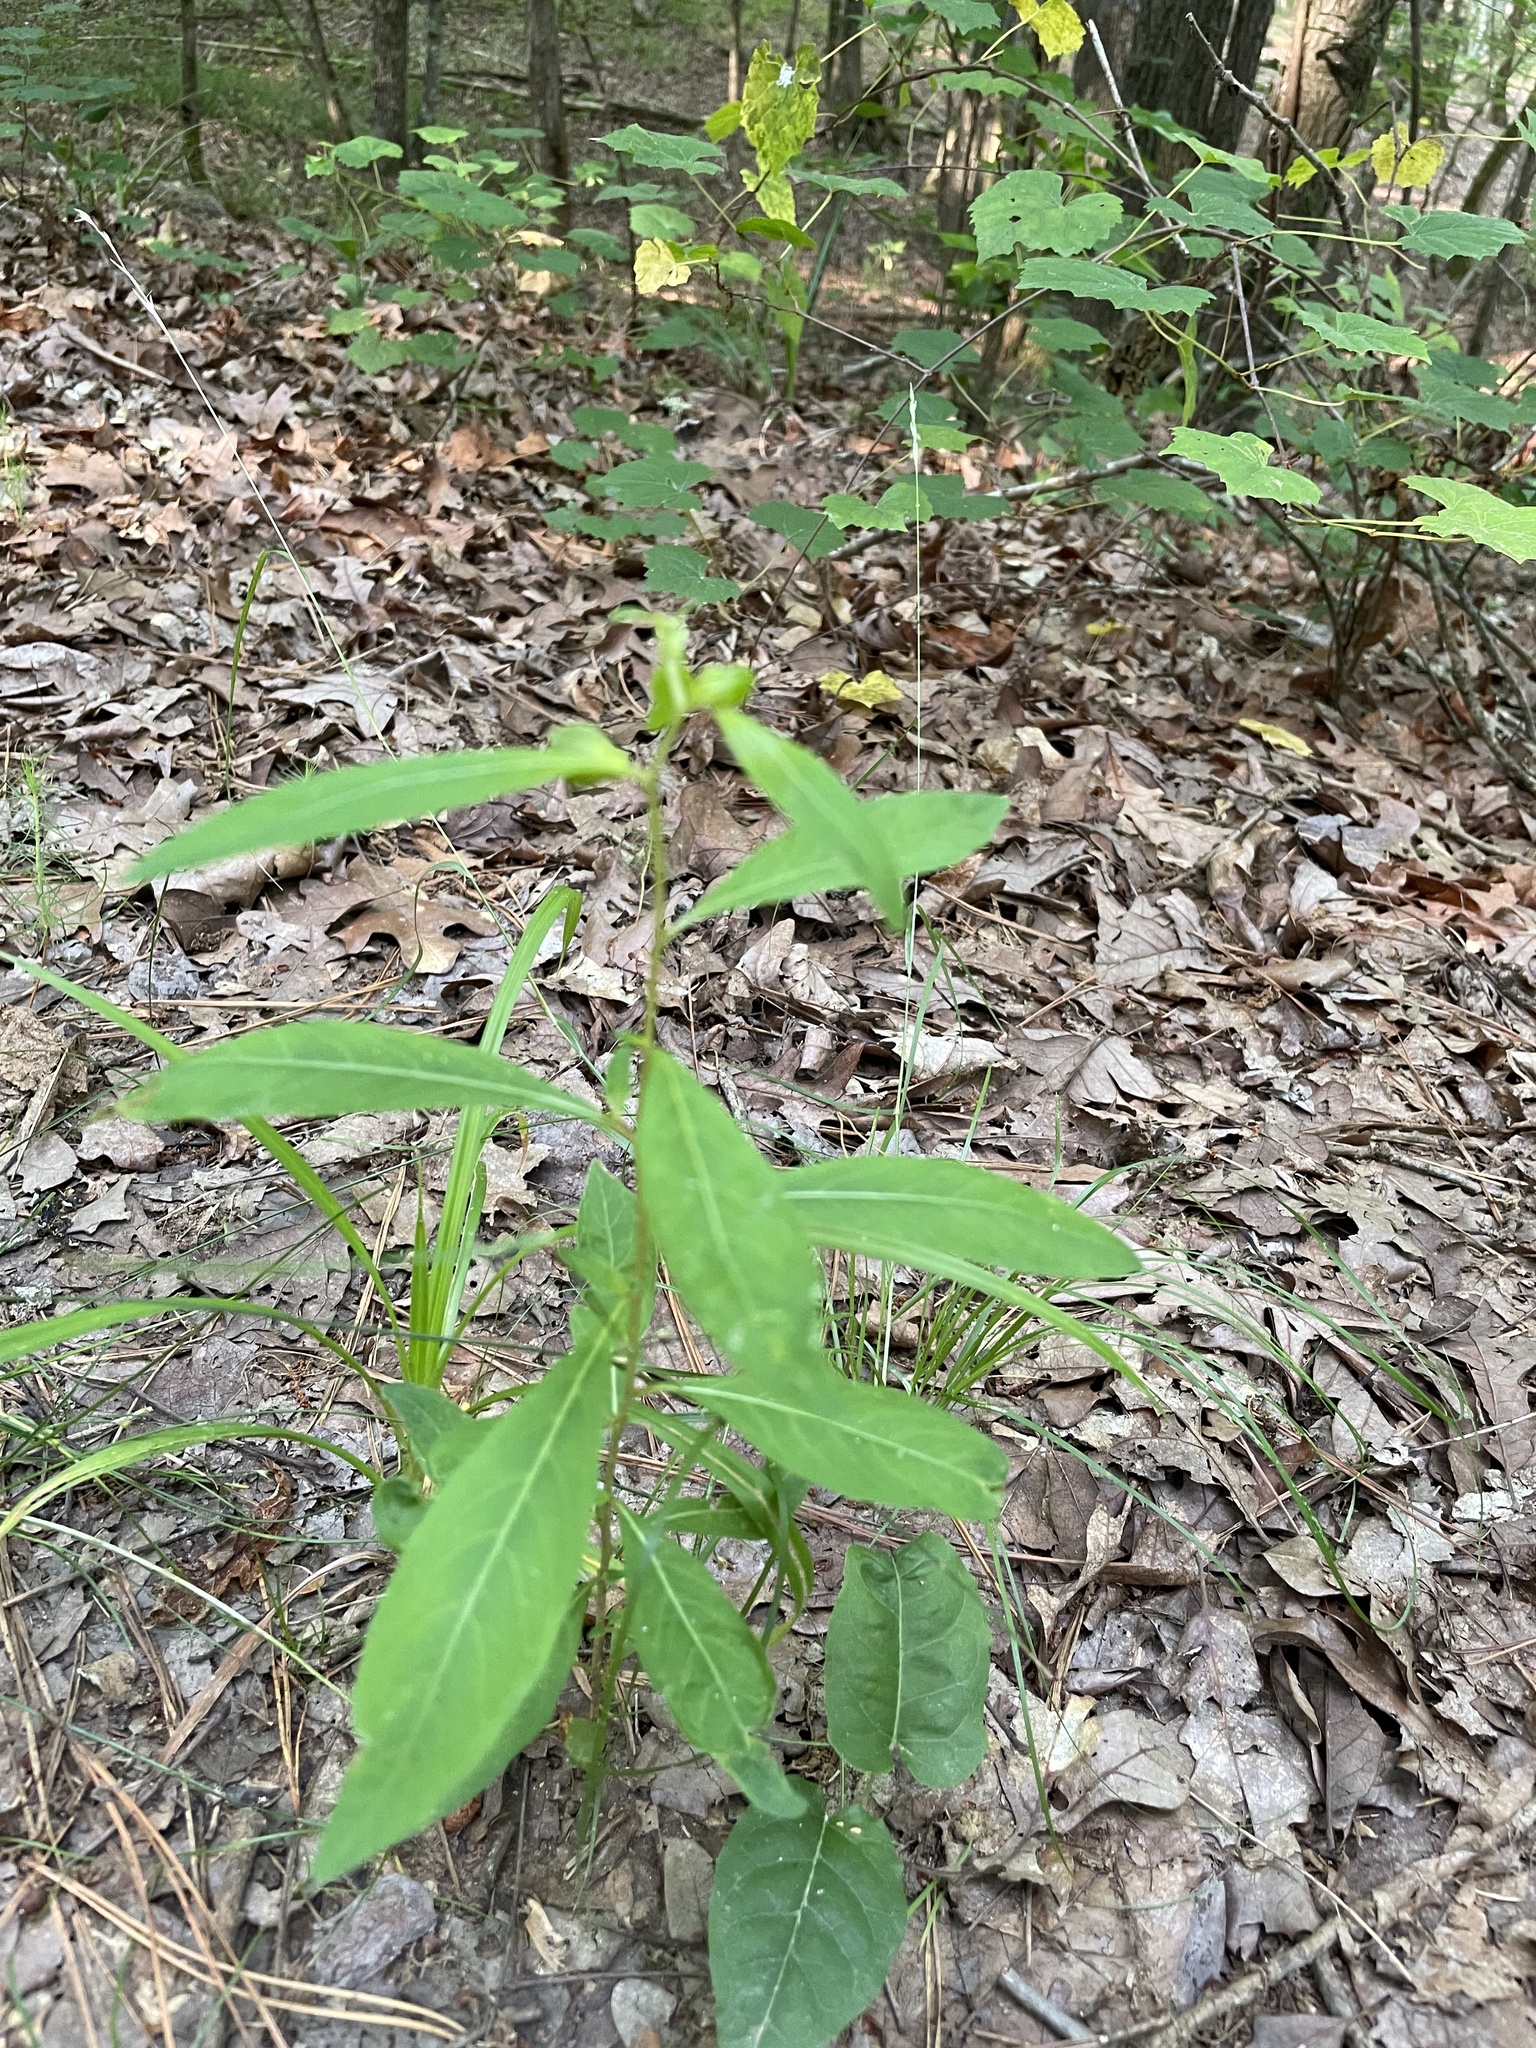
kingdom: Plantae
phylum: Tracheophyta
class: Magnoliopsida
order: Myrtales
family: Onagraceae
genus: Ludwigia
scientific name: Ludwigia alternifolia
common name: Rattlebox
